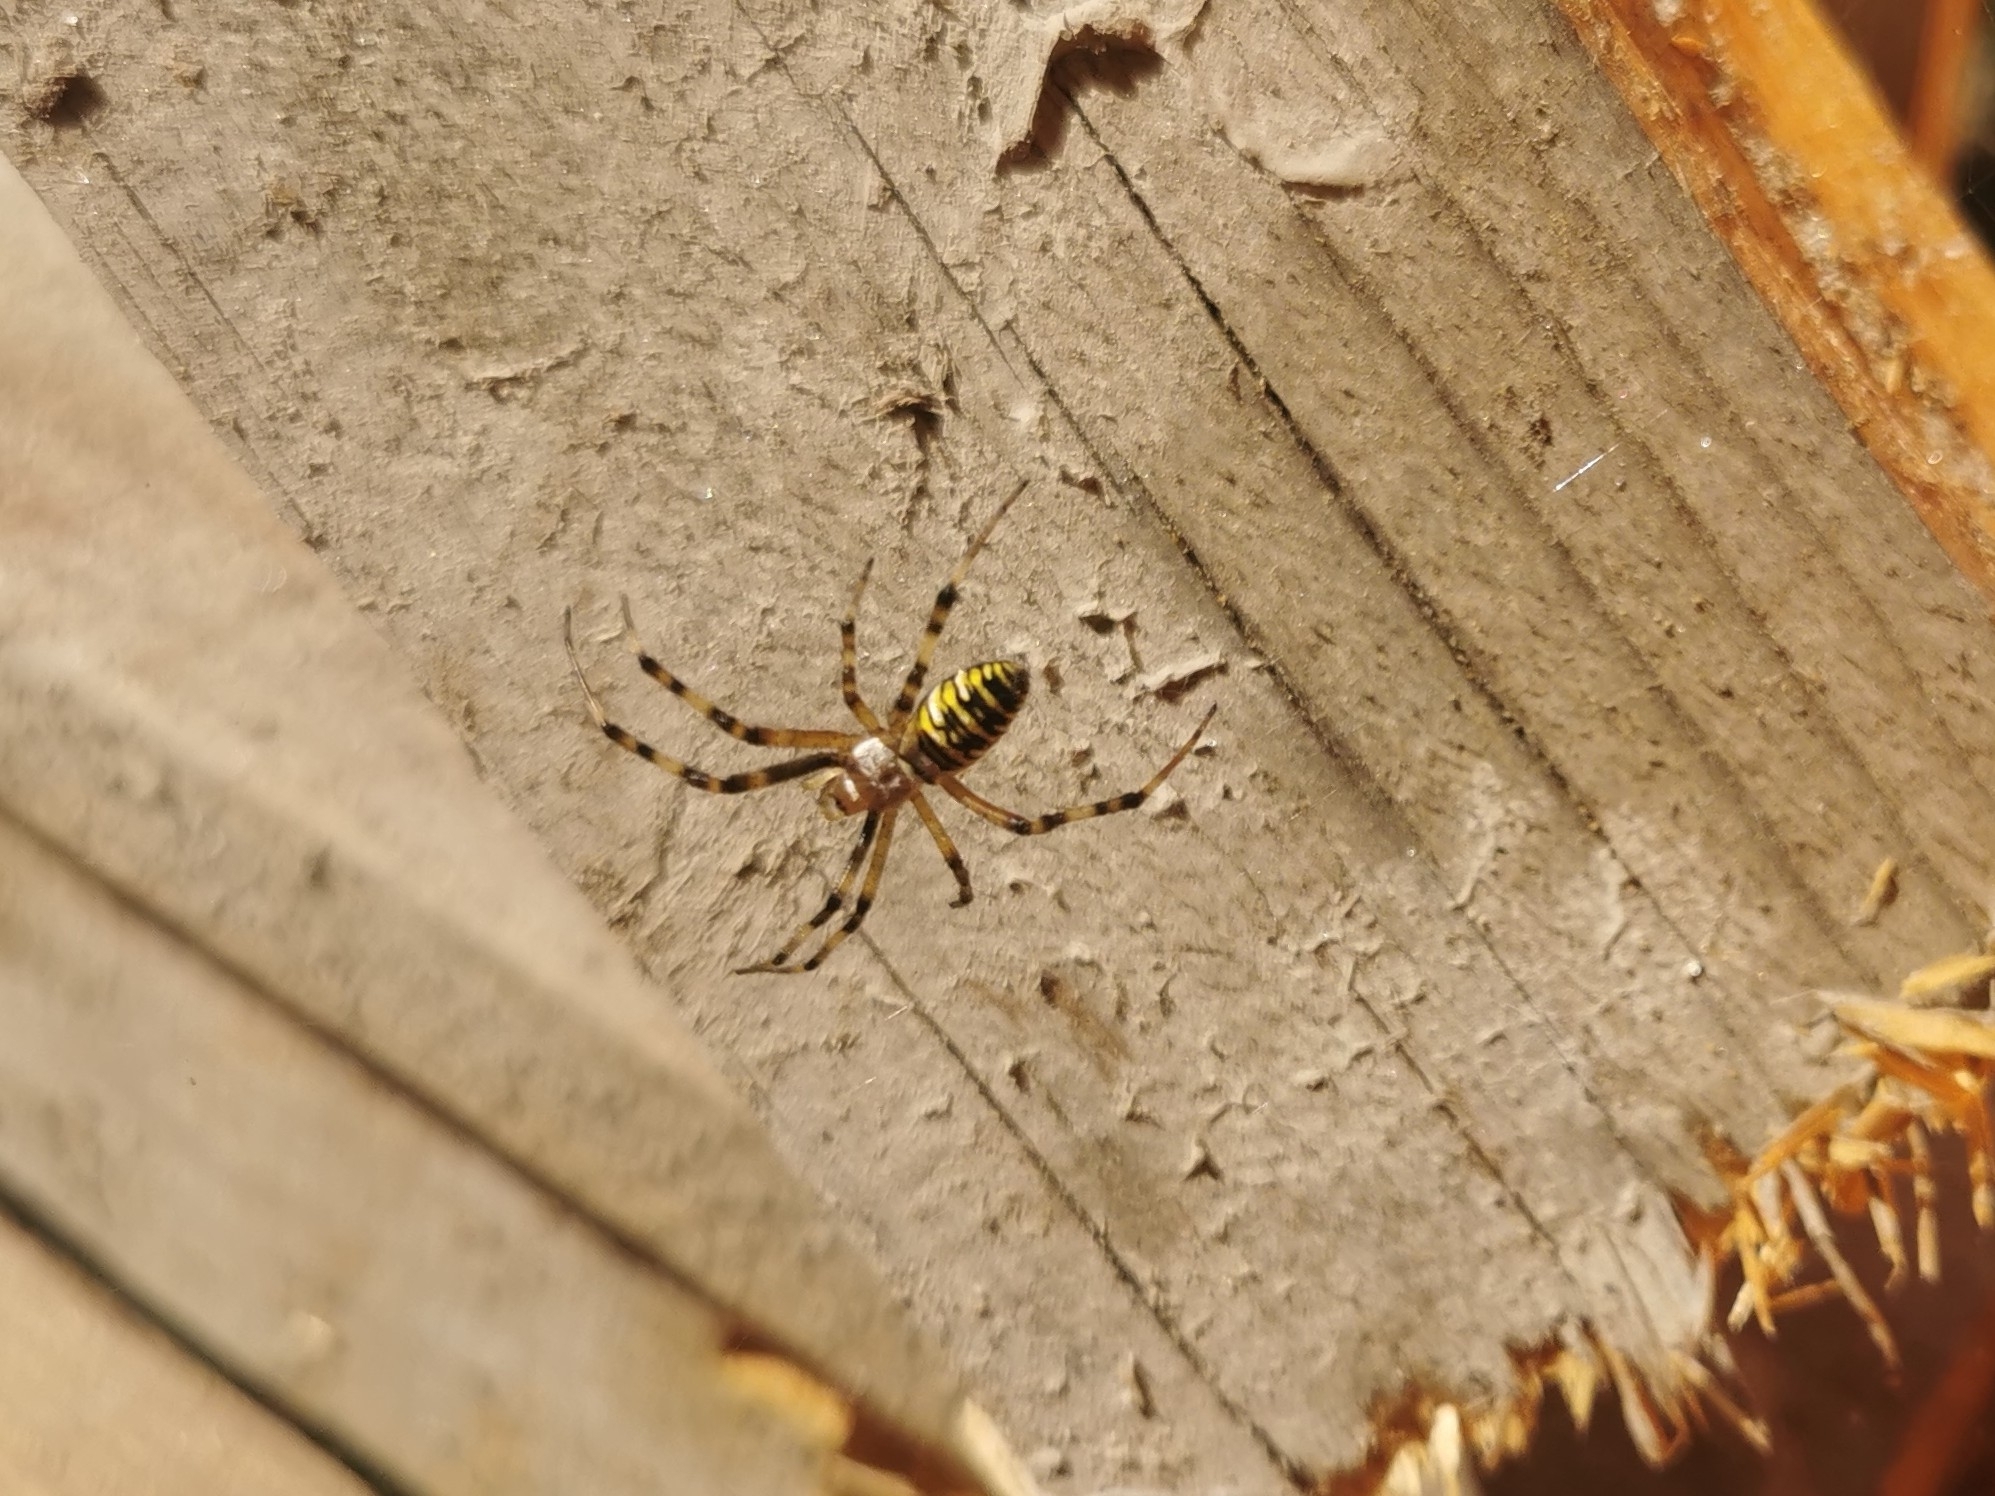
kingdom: Animalia
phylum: Arthropoda
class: Arachnida
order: Araneae
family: Araneidae
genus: Argiope
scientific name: Argiope bruennichi
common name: Wasp spider
